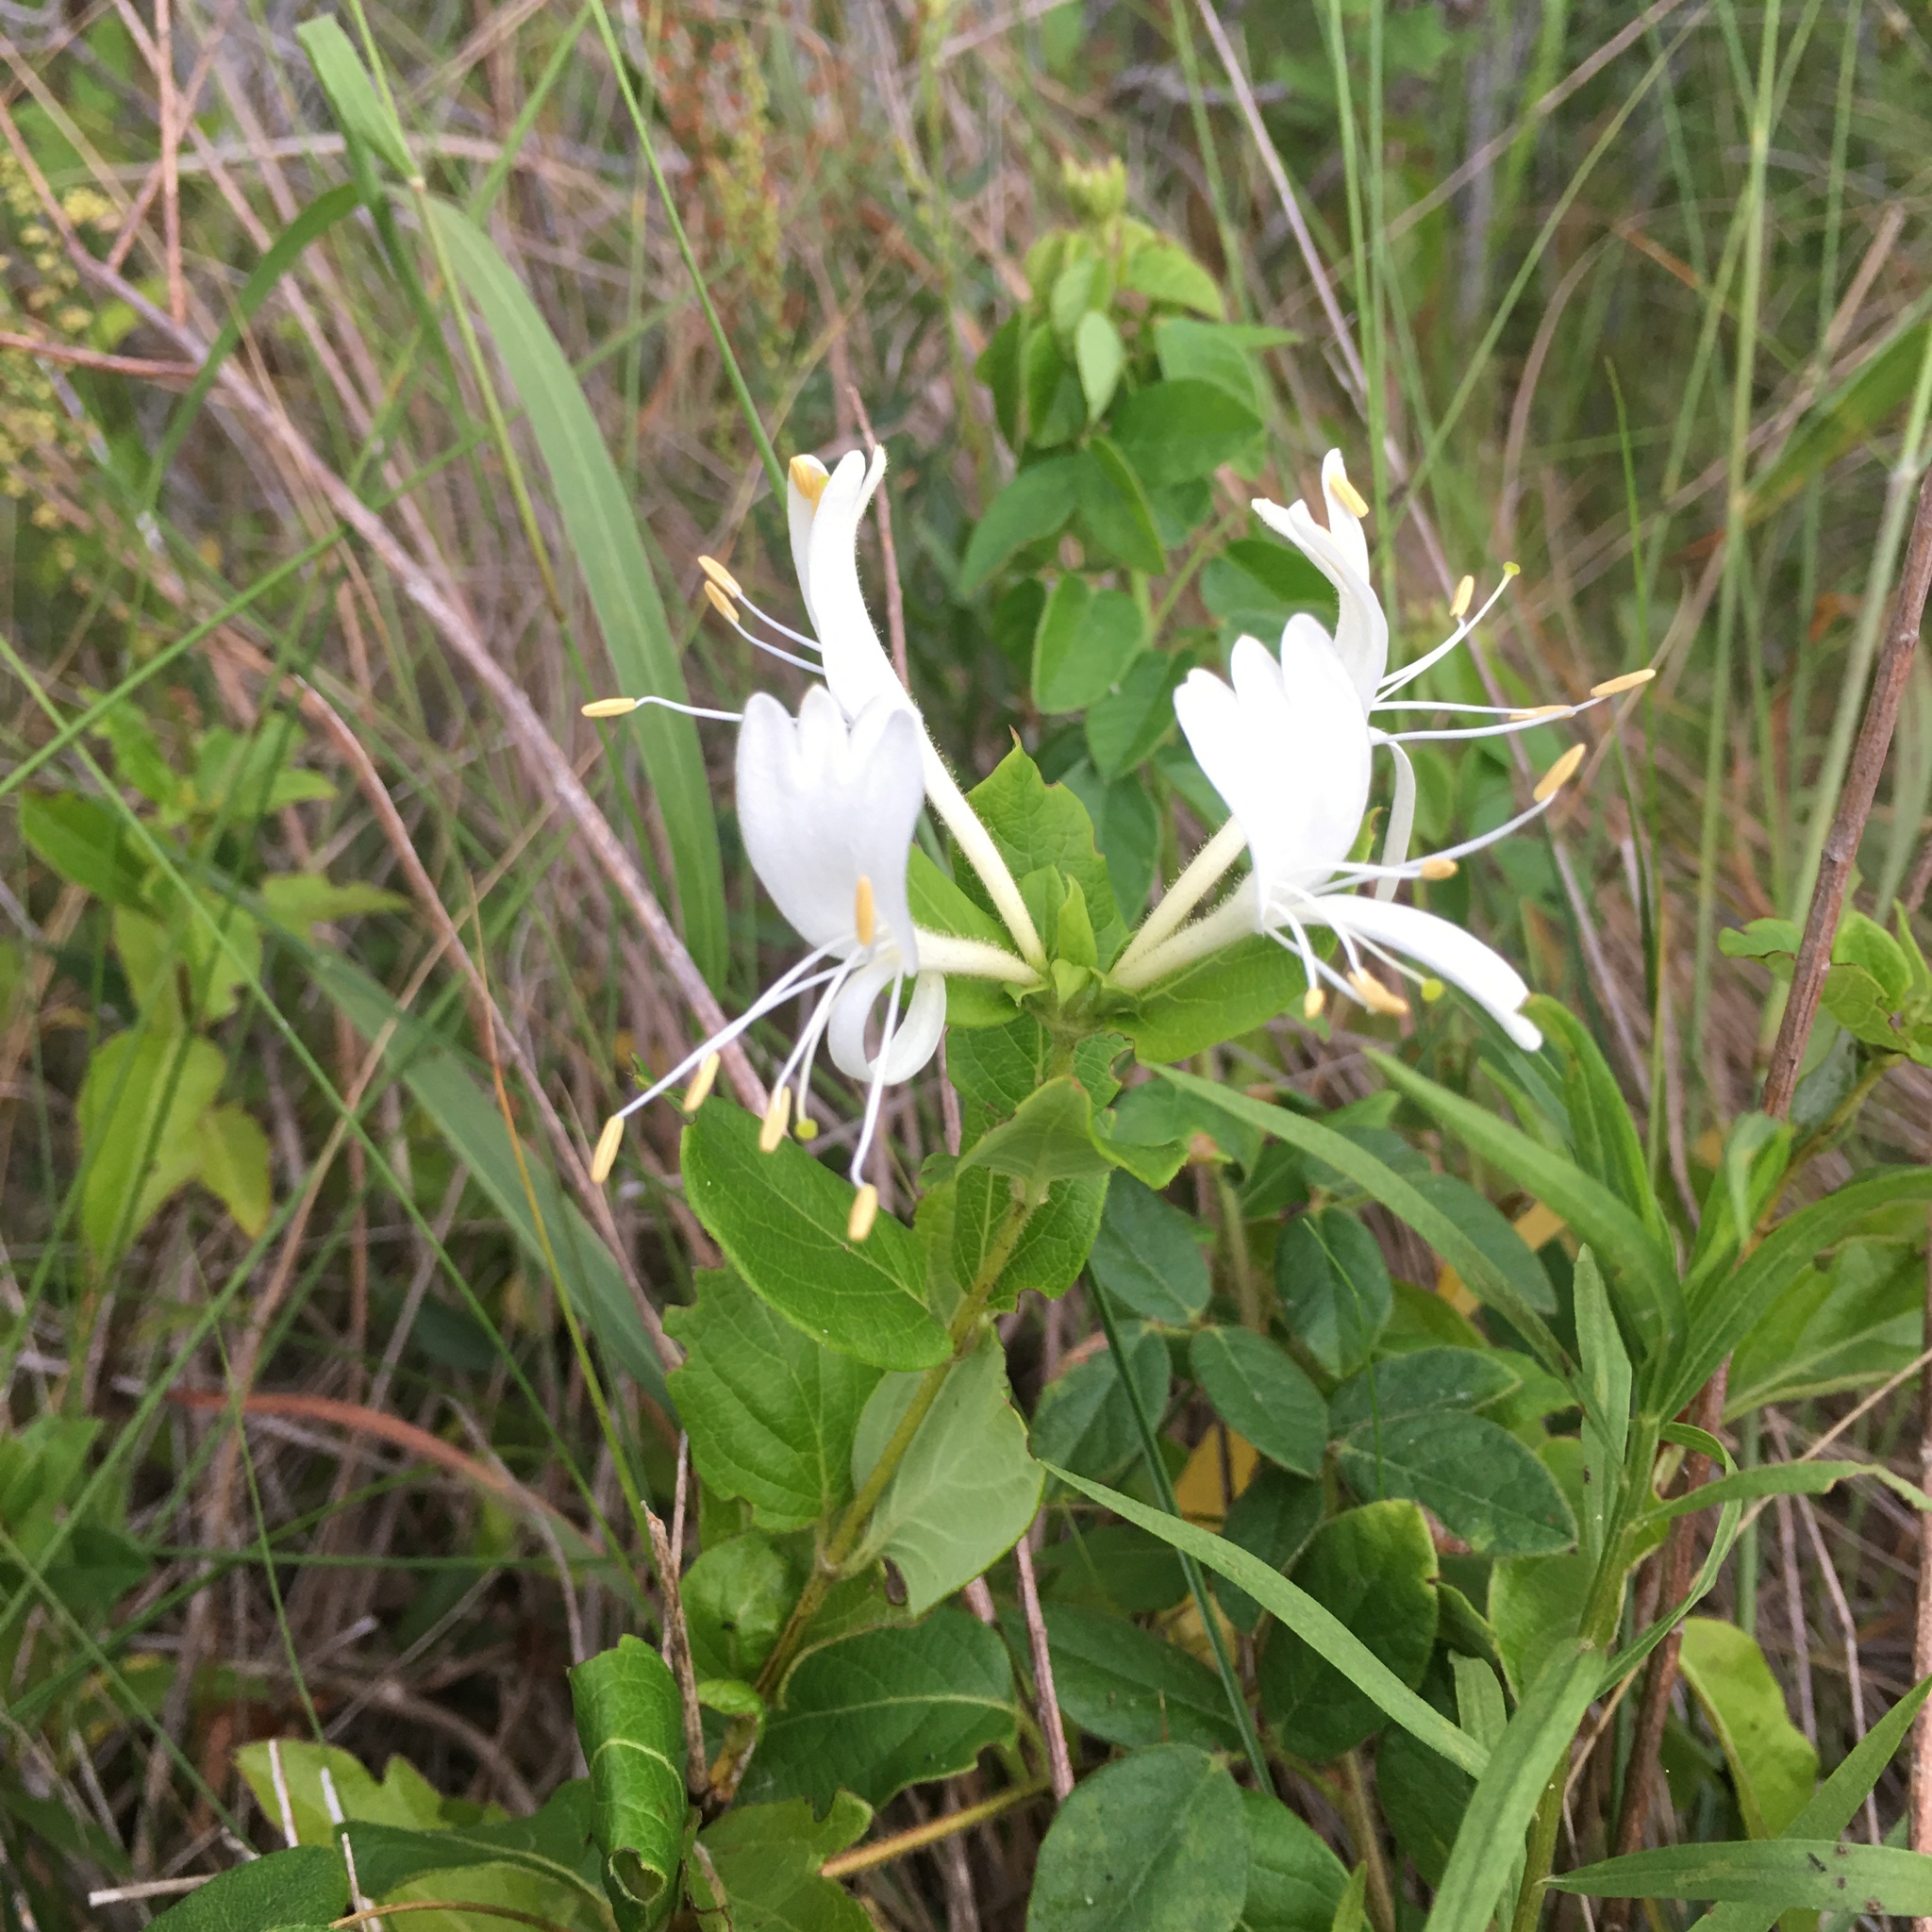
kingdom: Plantae
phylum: Tracheophyta
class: Magnoliopsida
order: Dipsacales
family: Caprifoliaceae
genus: Lonicera
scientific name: Lonicera japonica
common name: Japanese honeysuckle
